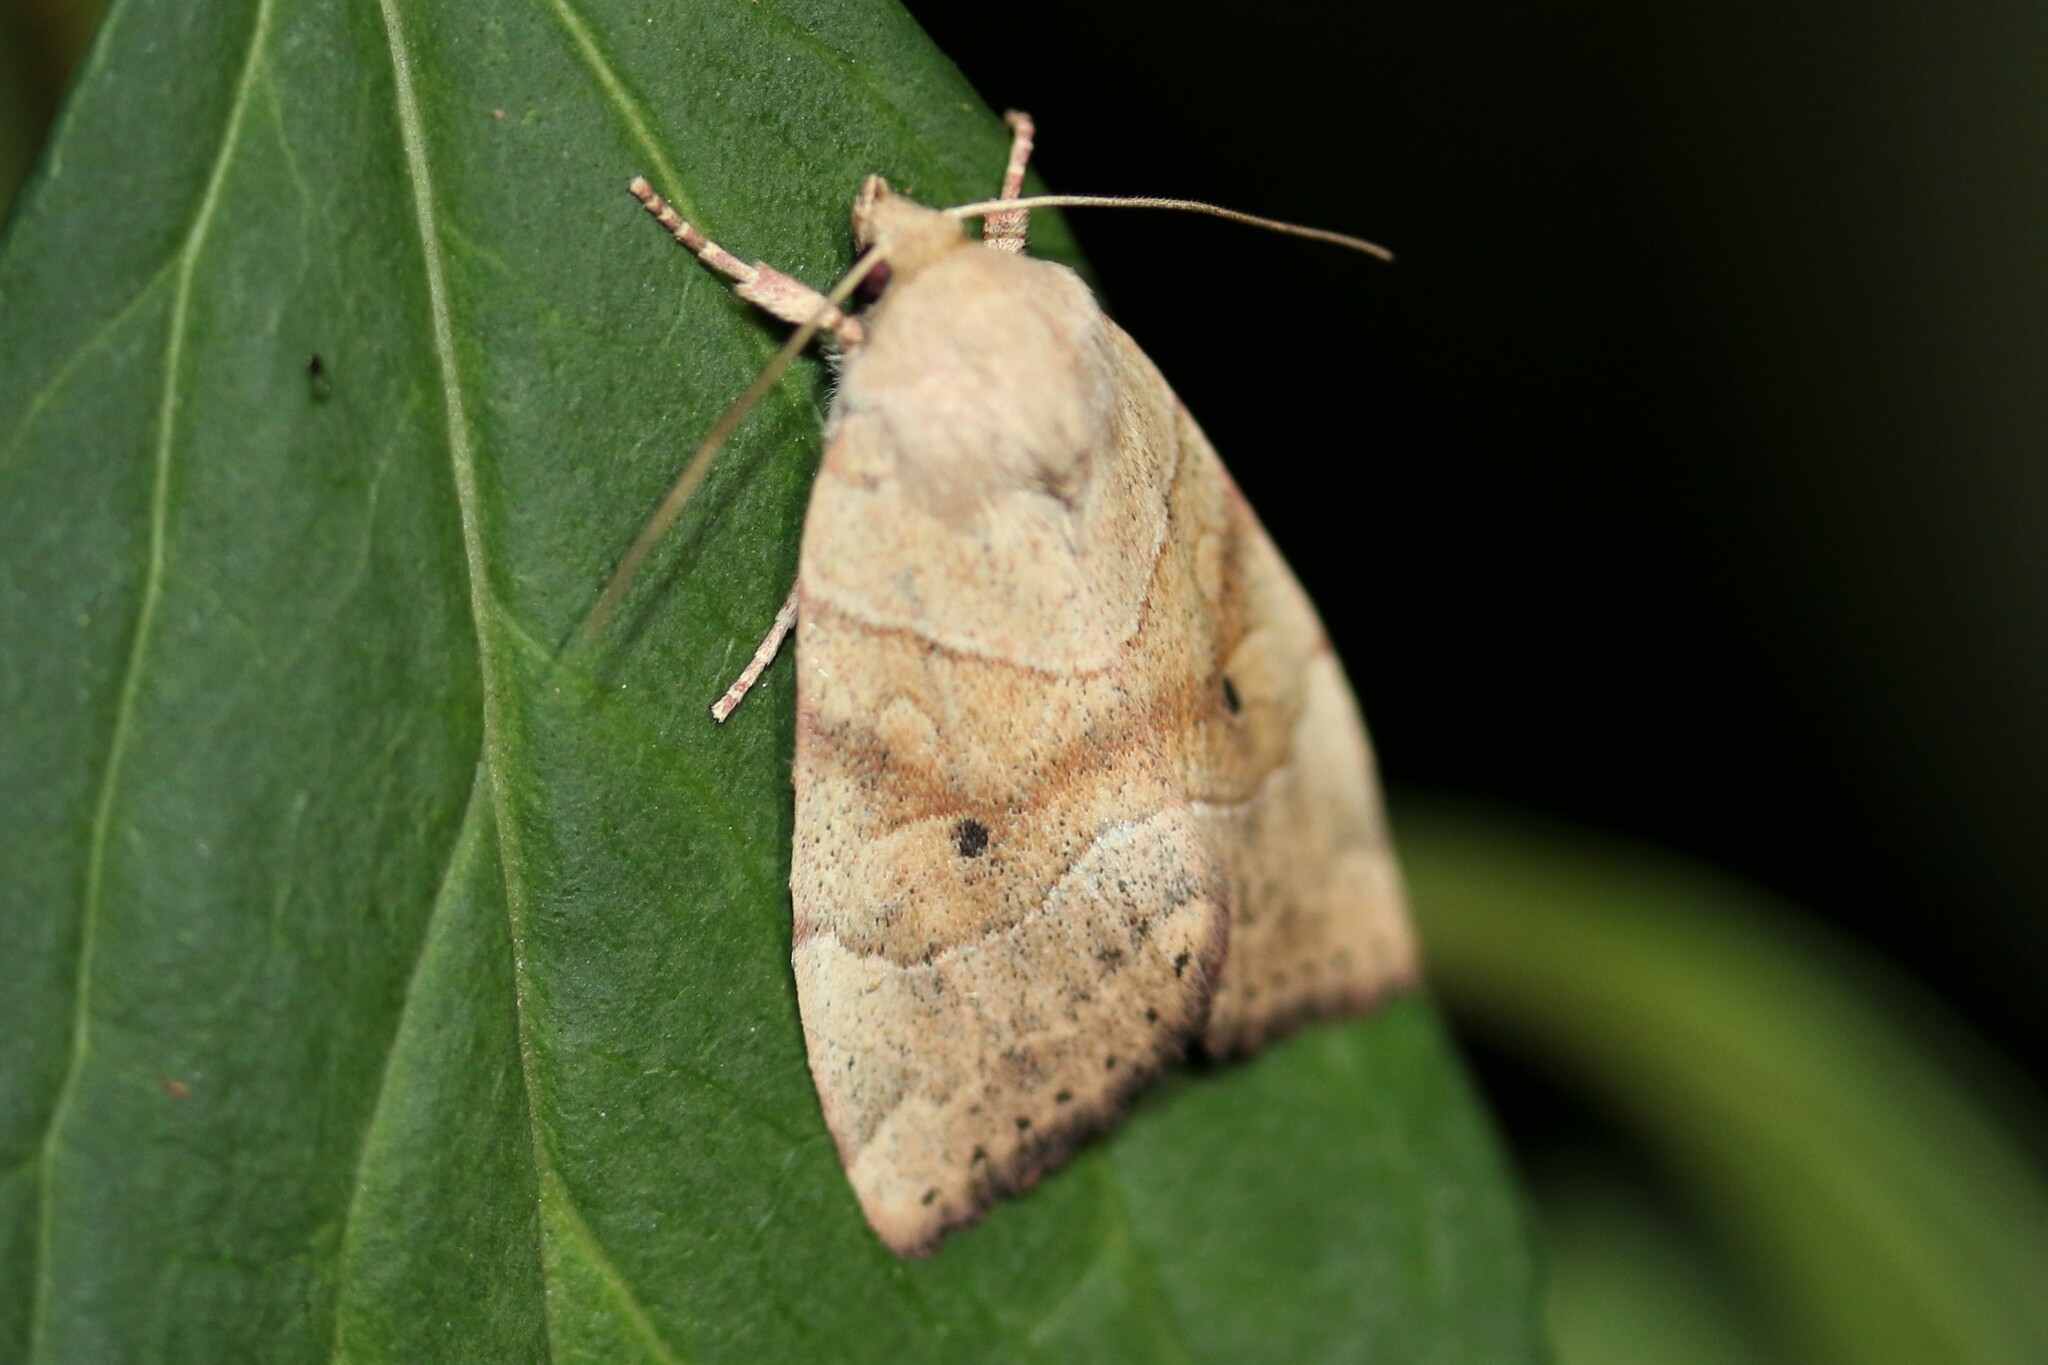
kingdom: Animalia
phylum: Arthropoda
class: Insecta
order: Lepidoptera
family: Noctuidae
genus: Cosmia
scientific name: Cosmia trapezina
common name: Dun-bar
